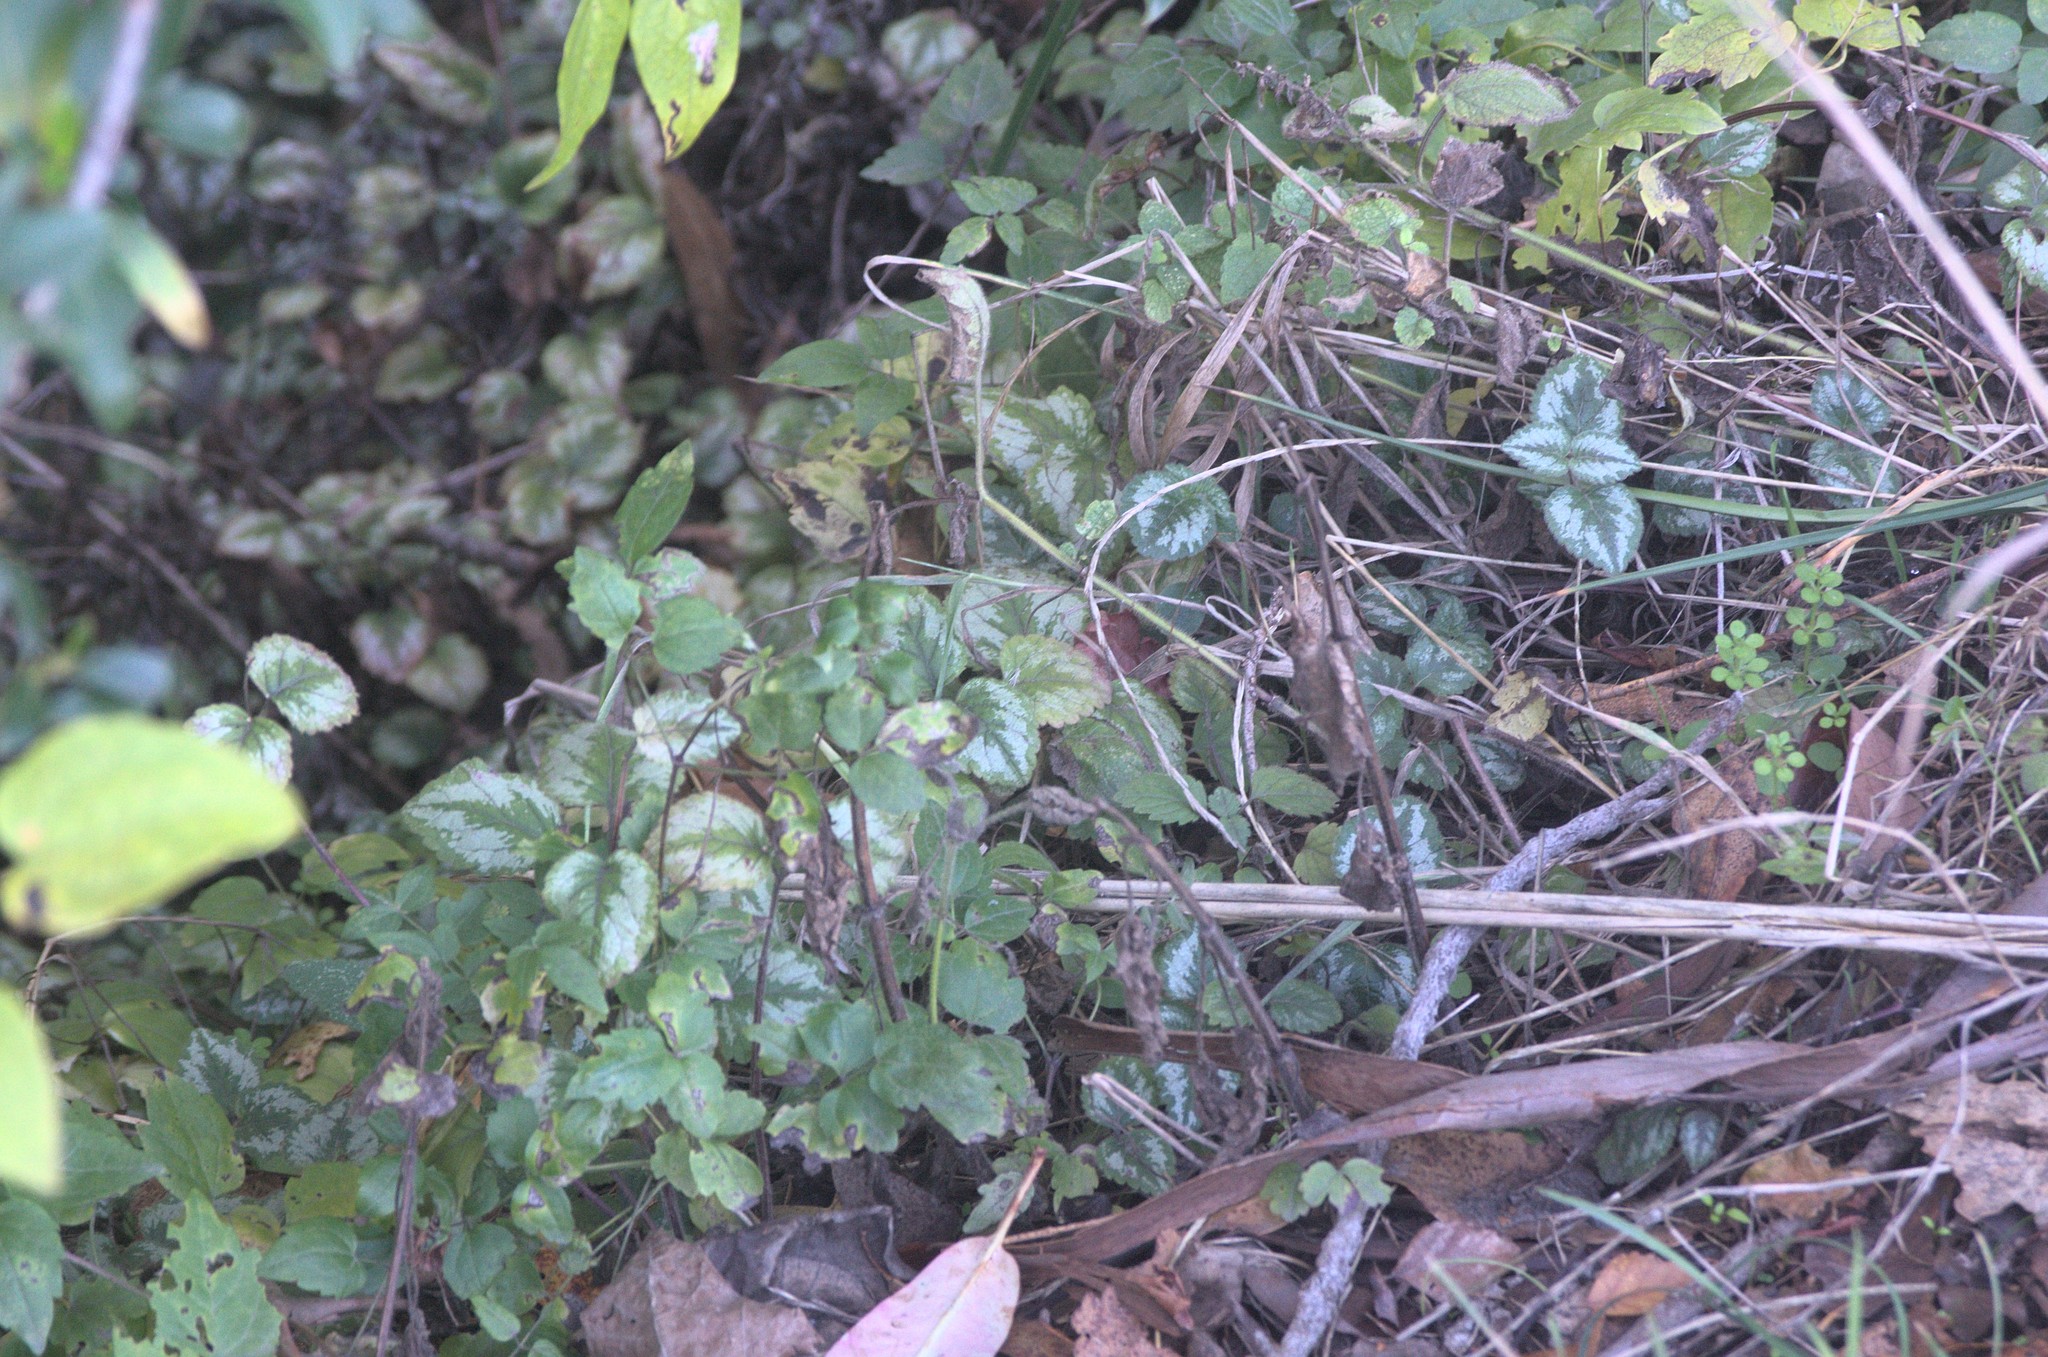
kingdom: Plantae
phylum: Tracheophyta
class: Magnoliopsida
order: Lamiales
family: Lamiaceae
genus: Lamium
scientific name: Lamium galeobdolon
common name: Yellow archangel
